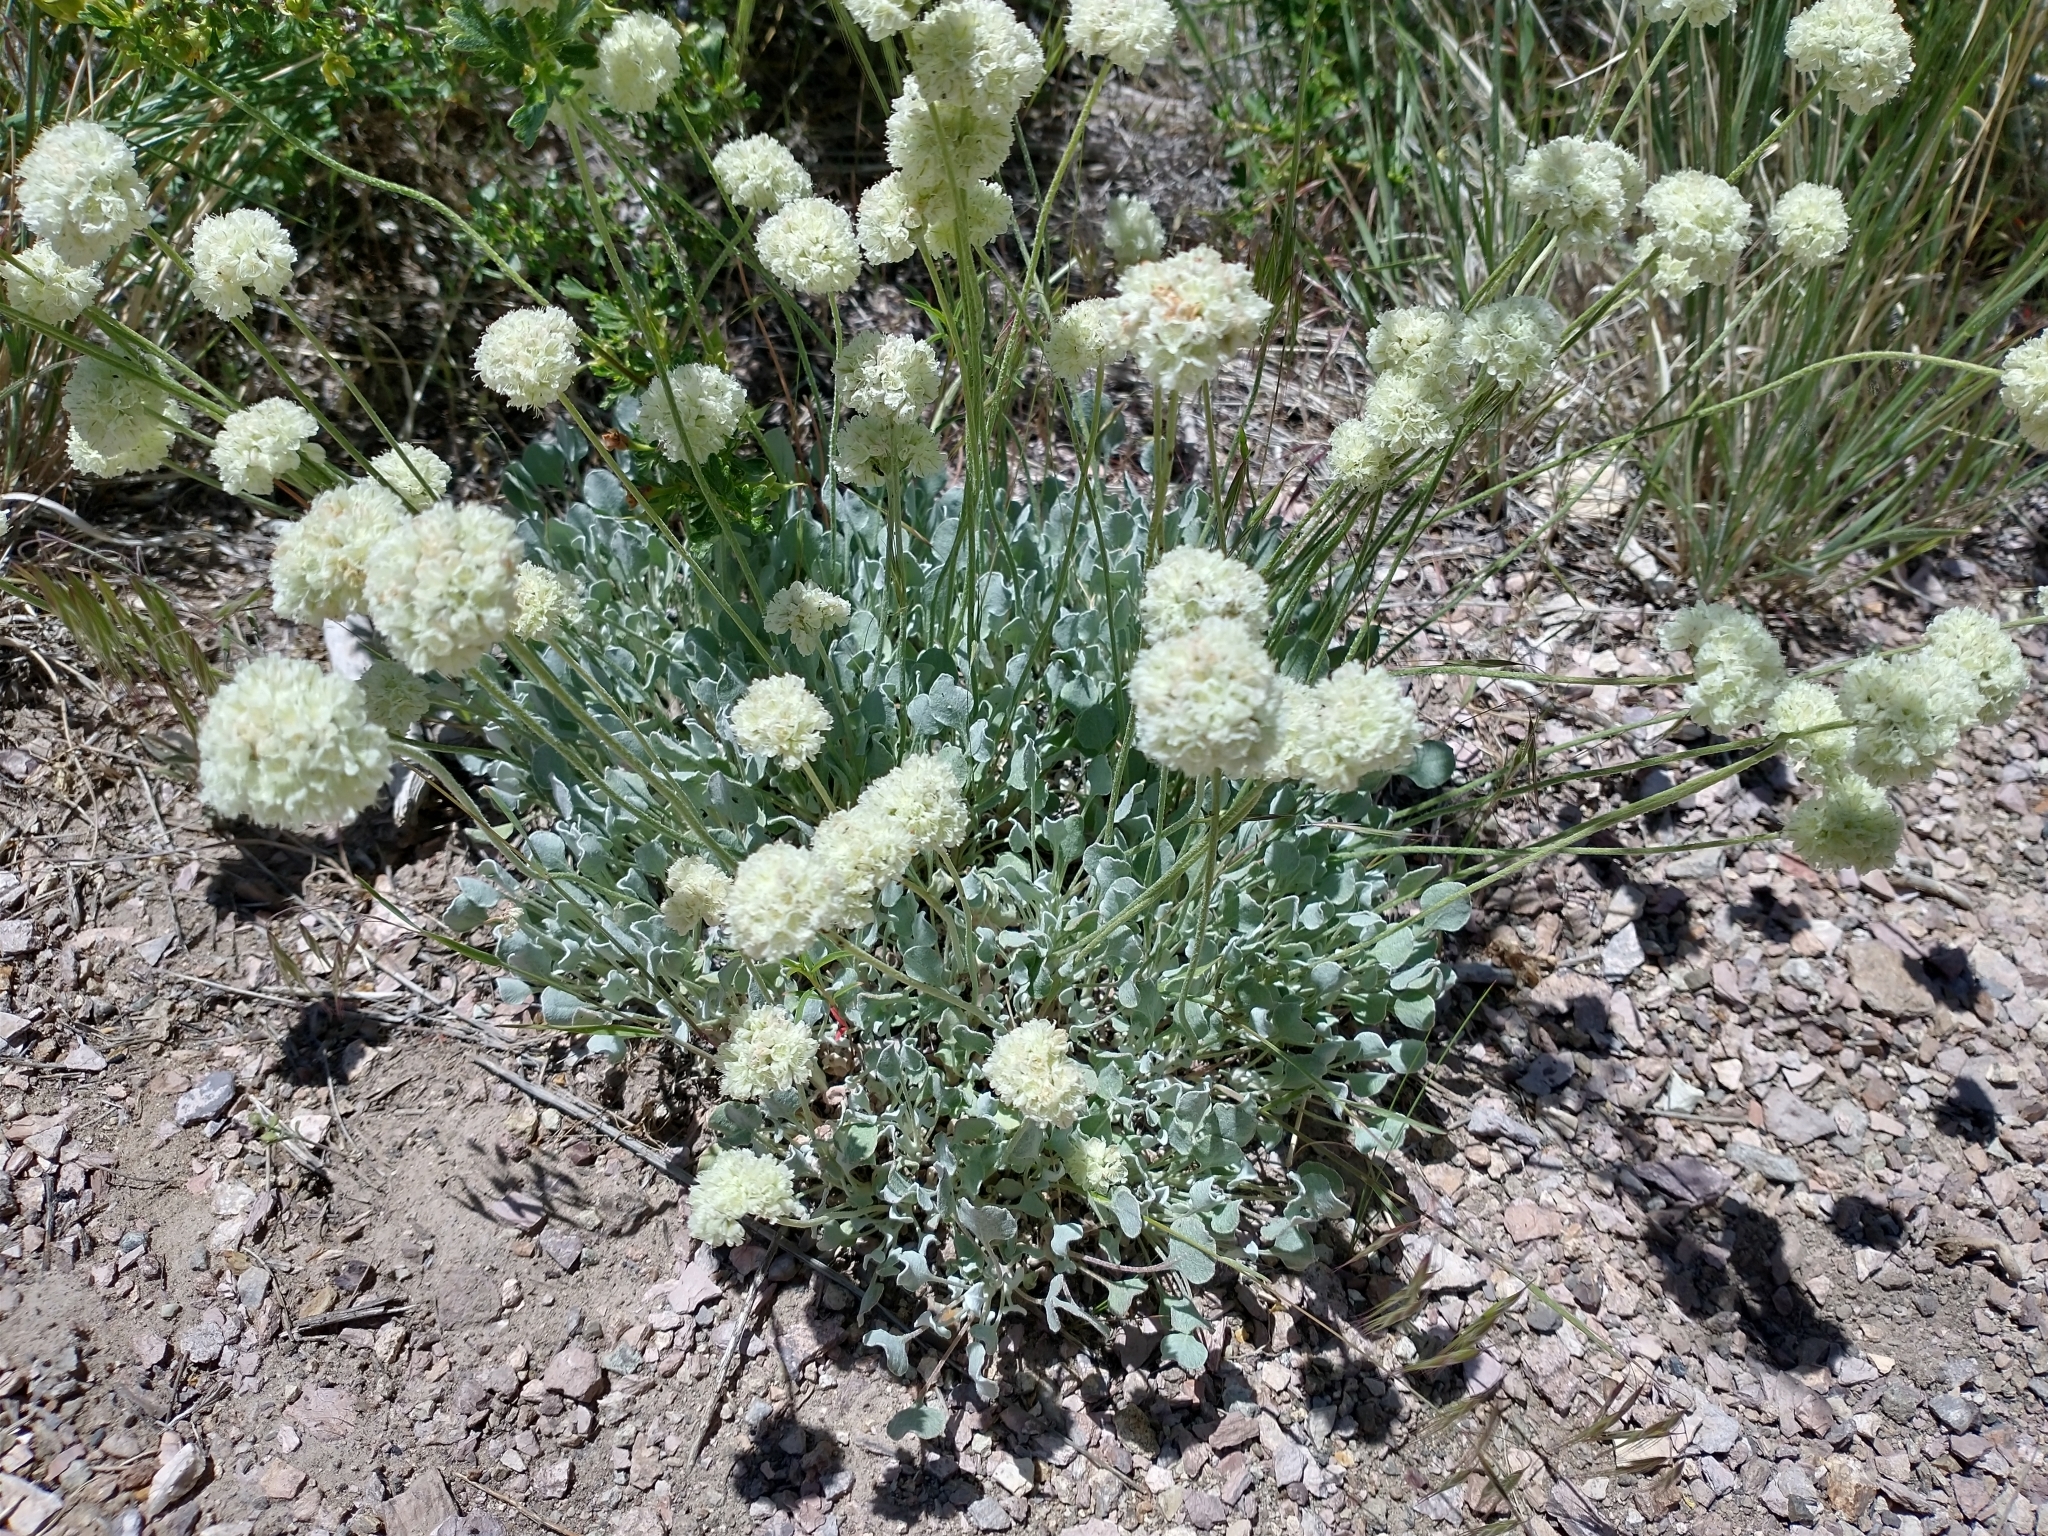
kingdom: Plantae
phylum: Tracheophyta
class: Magnoliopsida
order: Caryophyllales
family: Polygonaceae
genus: Eriogonum
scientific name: Eriogonum ovalifolium
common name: Cushion buckwheat
